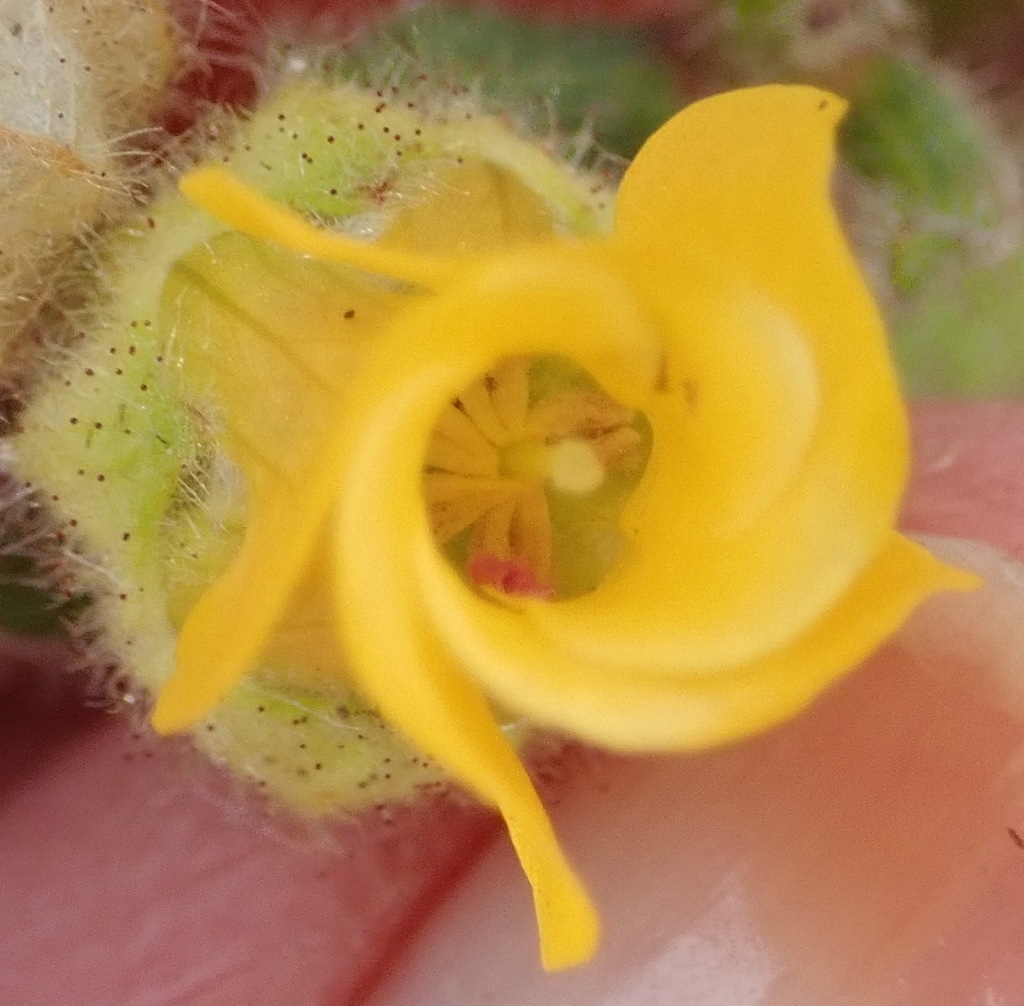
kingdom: Plantae
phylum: Tracheophyta
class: Magnoliopsida
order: Malvales
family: Malvaceae
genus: Hermannia
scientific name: Hermannia althaeifolia
